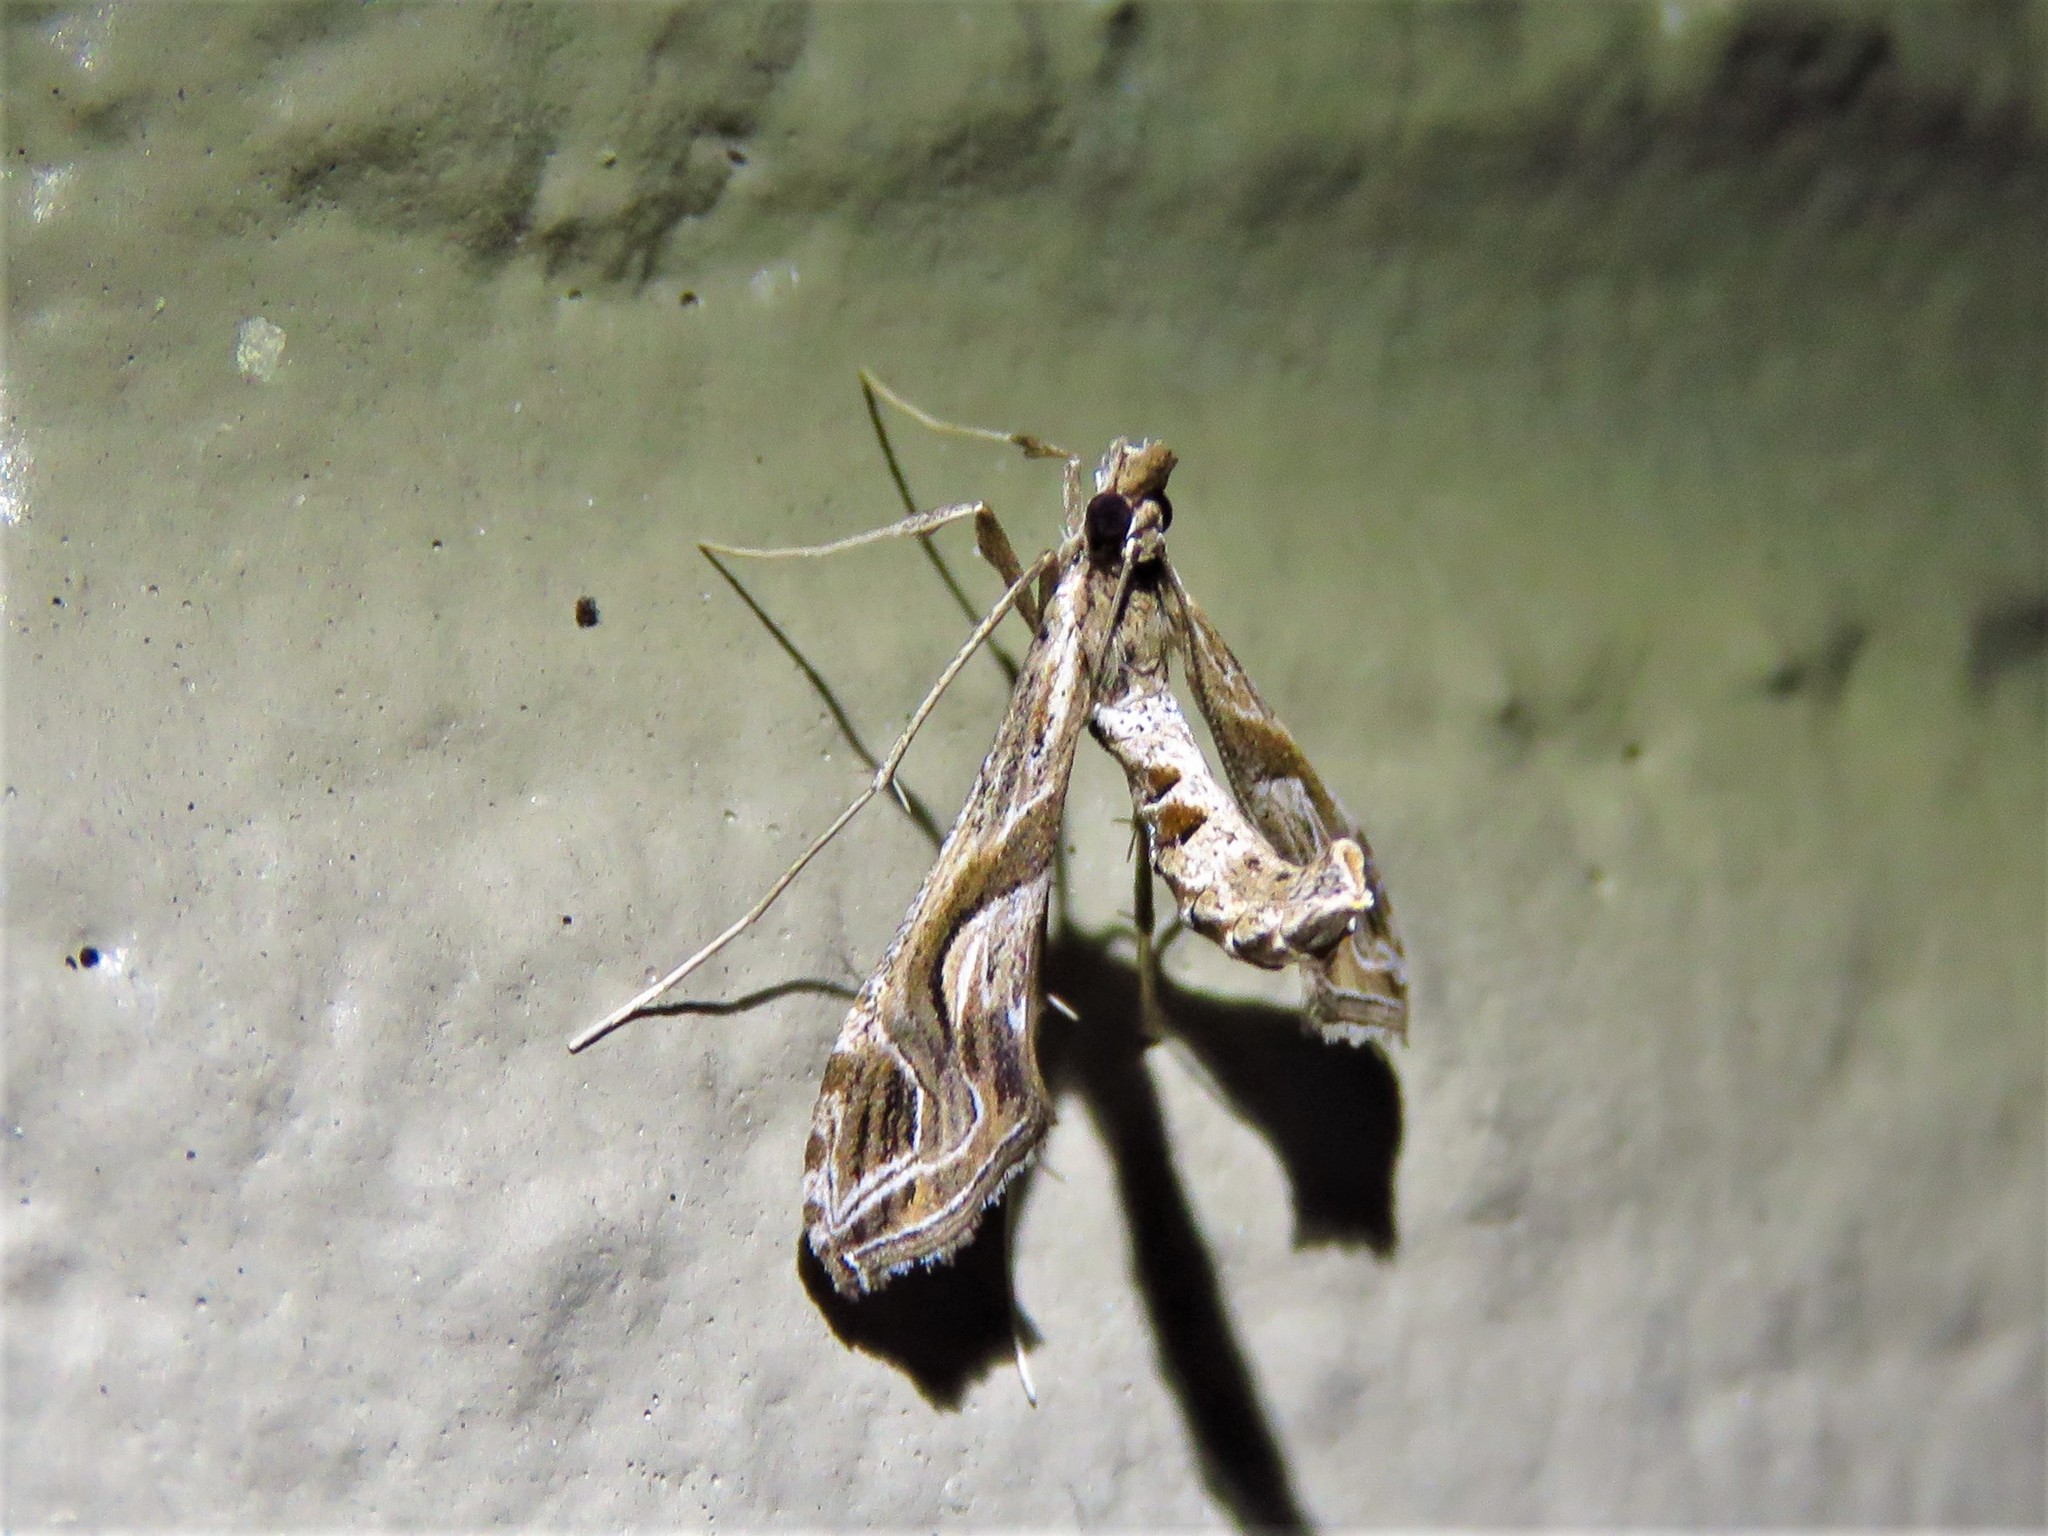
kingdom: Animalia
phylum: Arthropoda
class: Insecta
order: Lepidoptera
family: Crambidae
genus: Lineodes
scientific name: Lineodes integra
